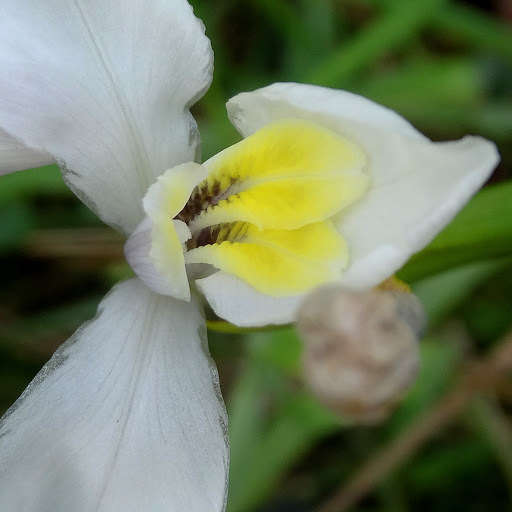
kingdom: Plantae
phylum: Tracheophyta
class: Liliopsida
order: Asparagales
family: Iridaceae
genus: Diplarrena
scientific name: Diplarrena moraea
